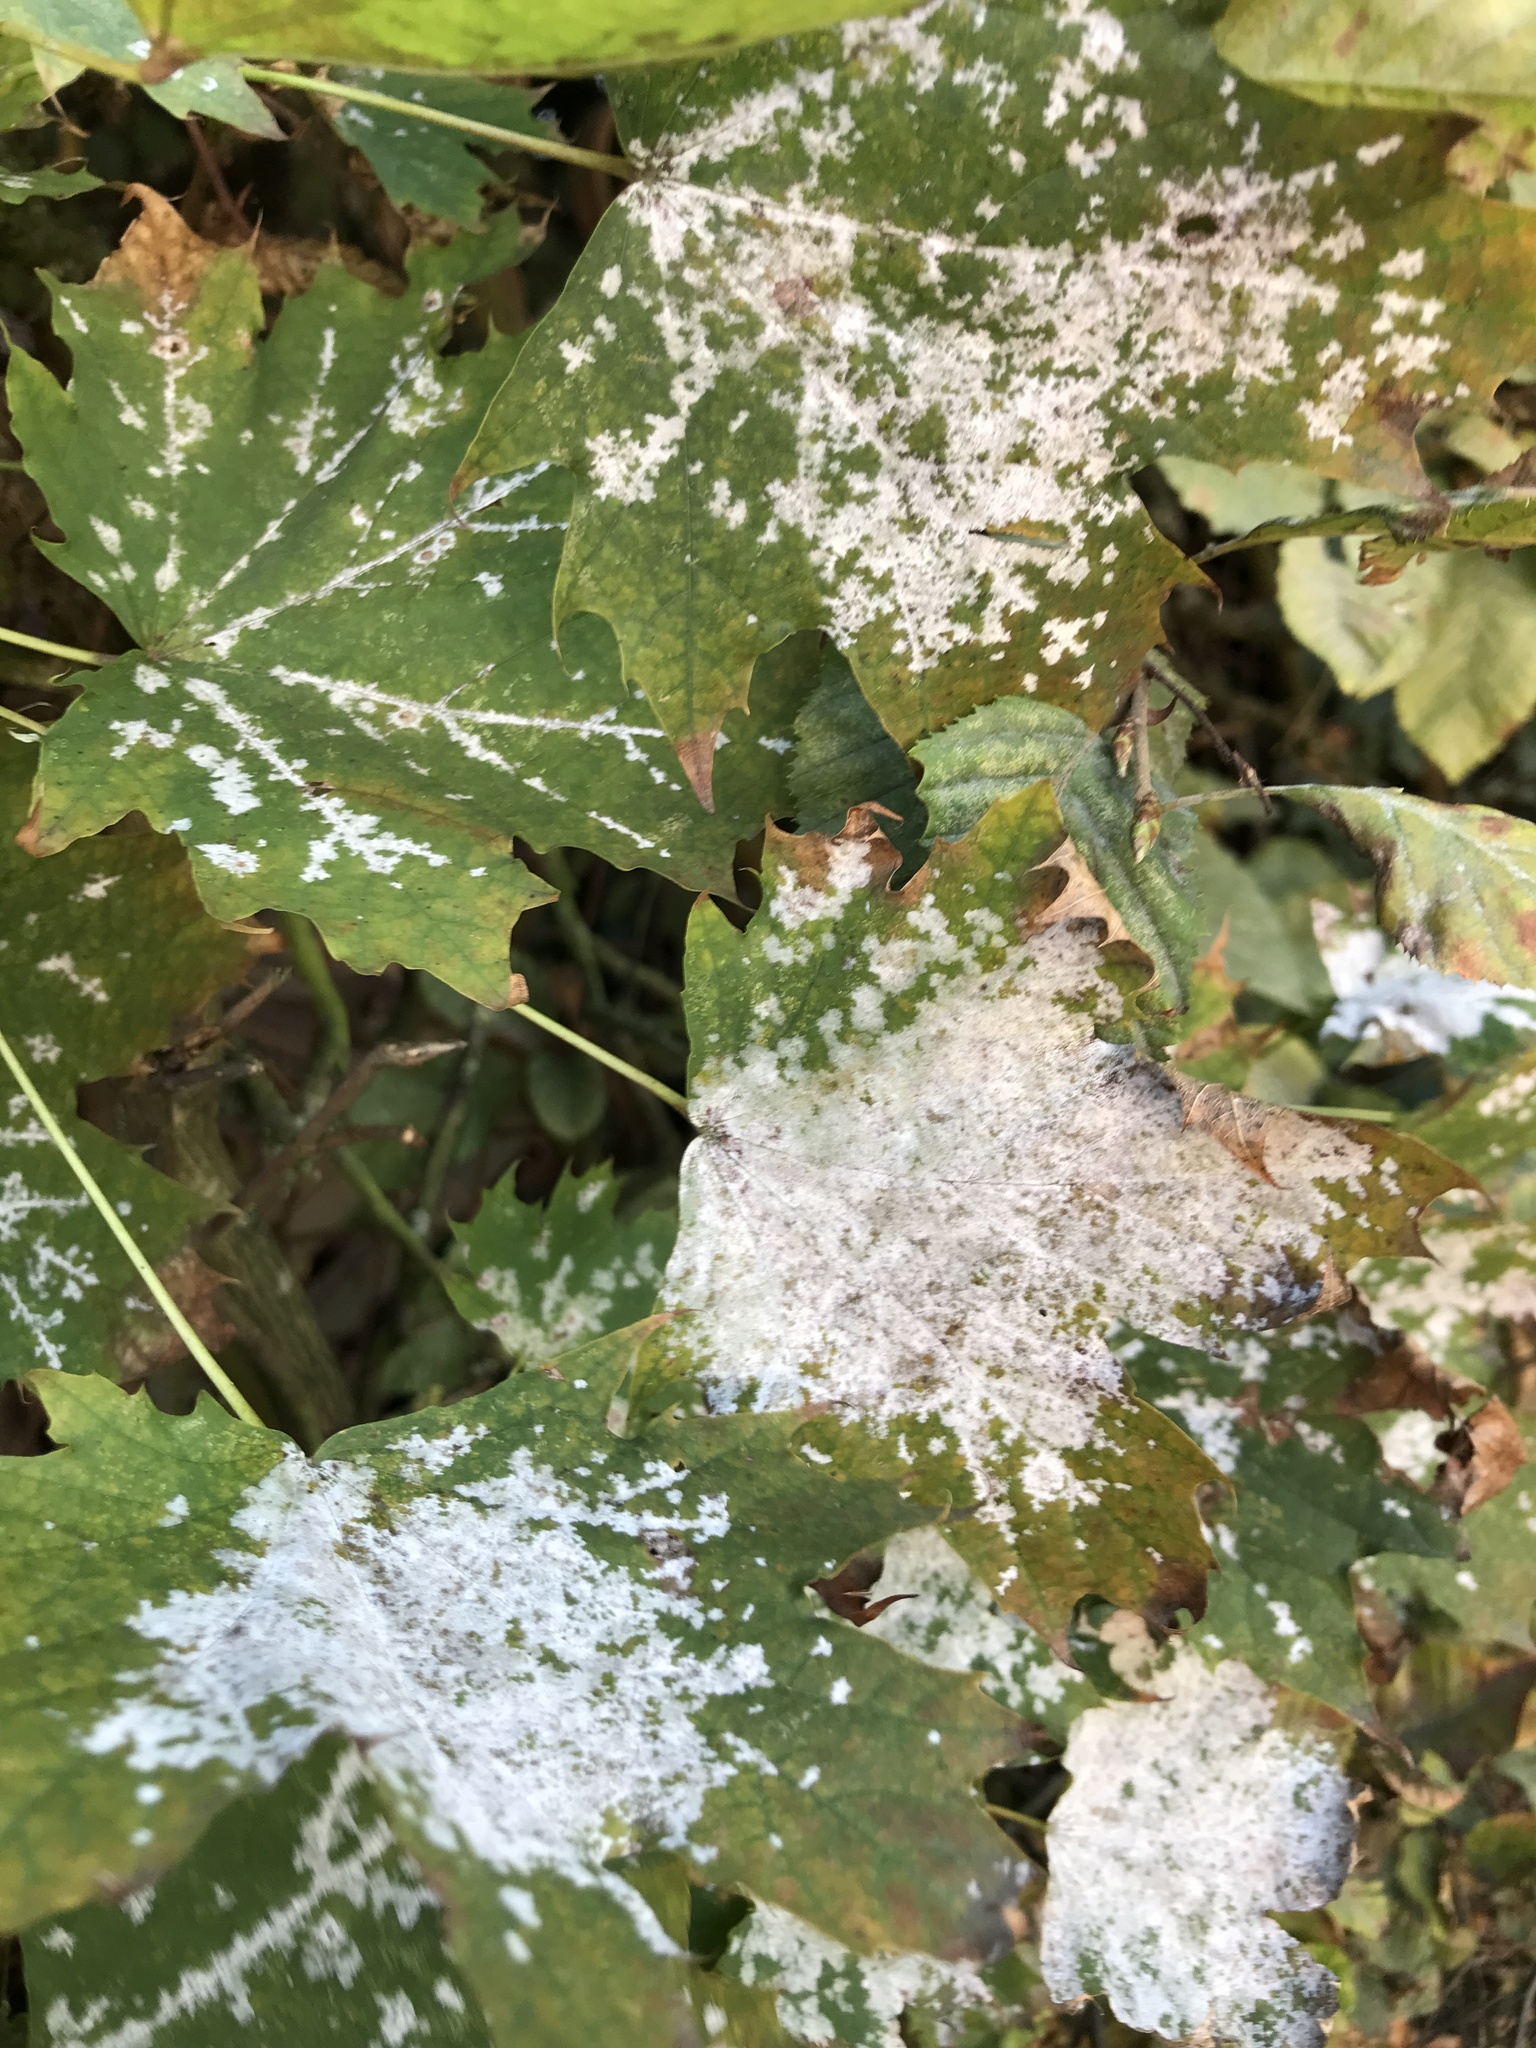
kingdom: Fungi
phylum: Ascomycota
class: Leotiomycetes
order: Helotiales
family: Erysiphaceae
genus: Sawadaea
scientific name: Sawadaea tulasnei
